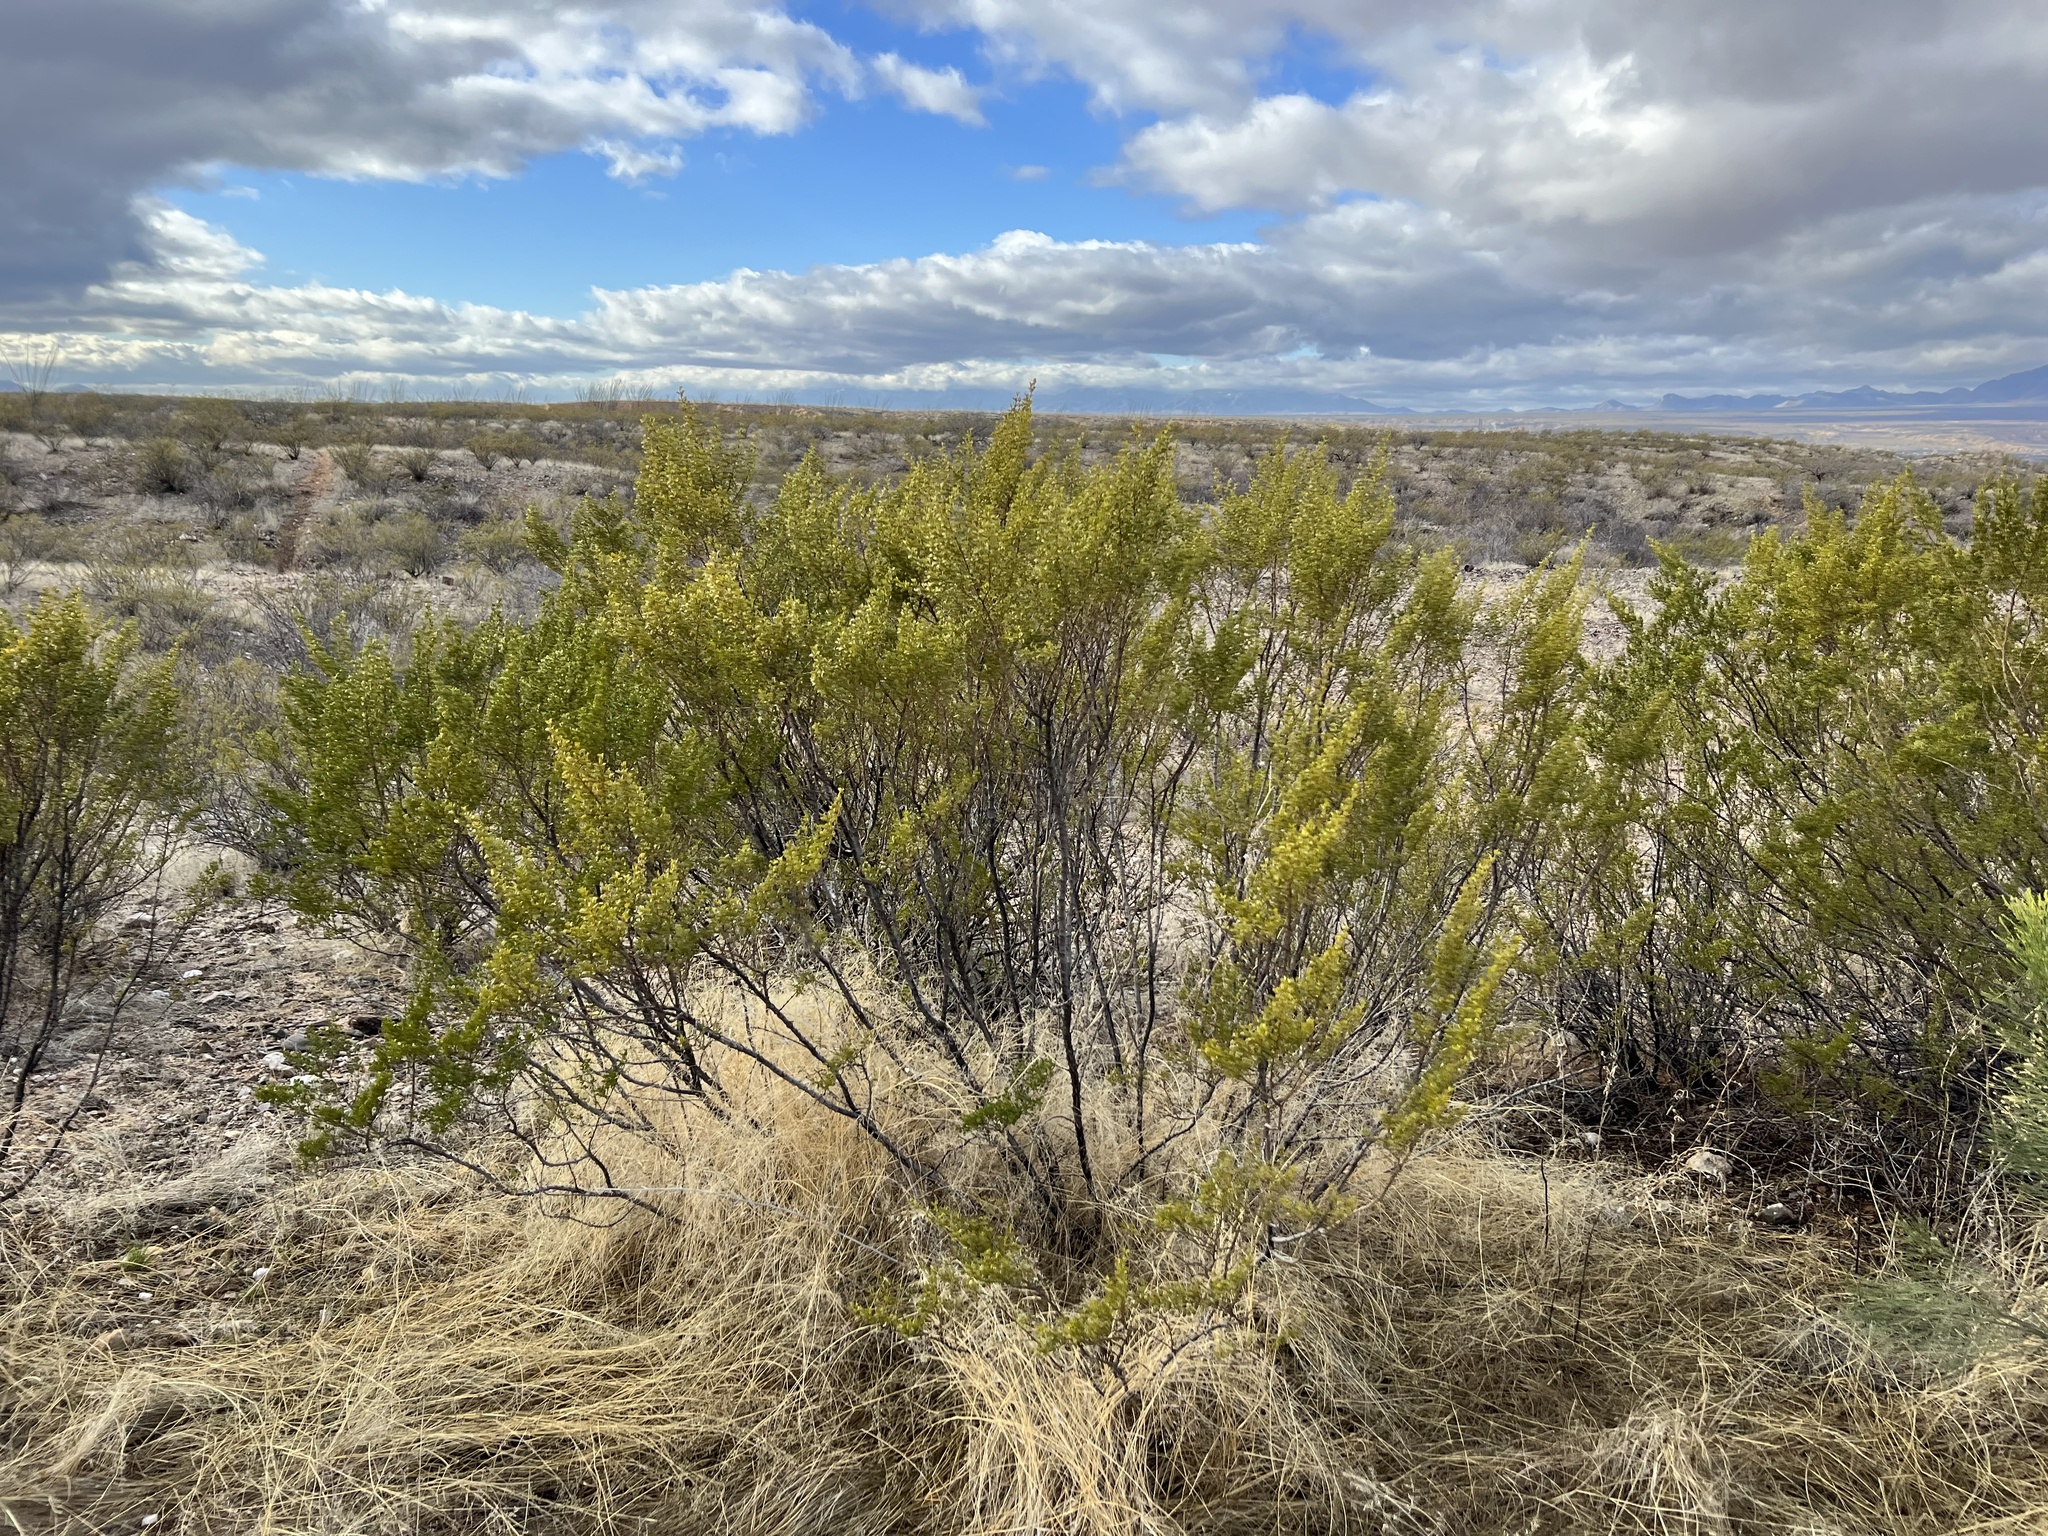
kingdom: Plantae
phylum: Tracheophyta
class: Magnoliopsida
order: Zygophyllales
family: Zygophyllaceae
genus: Larrea
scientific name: Larrea tridentata
